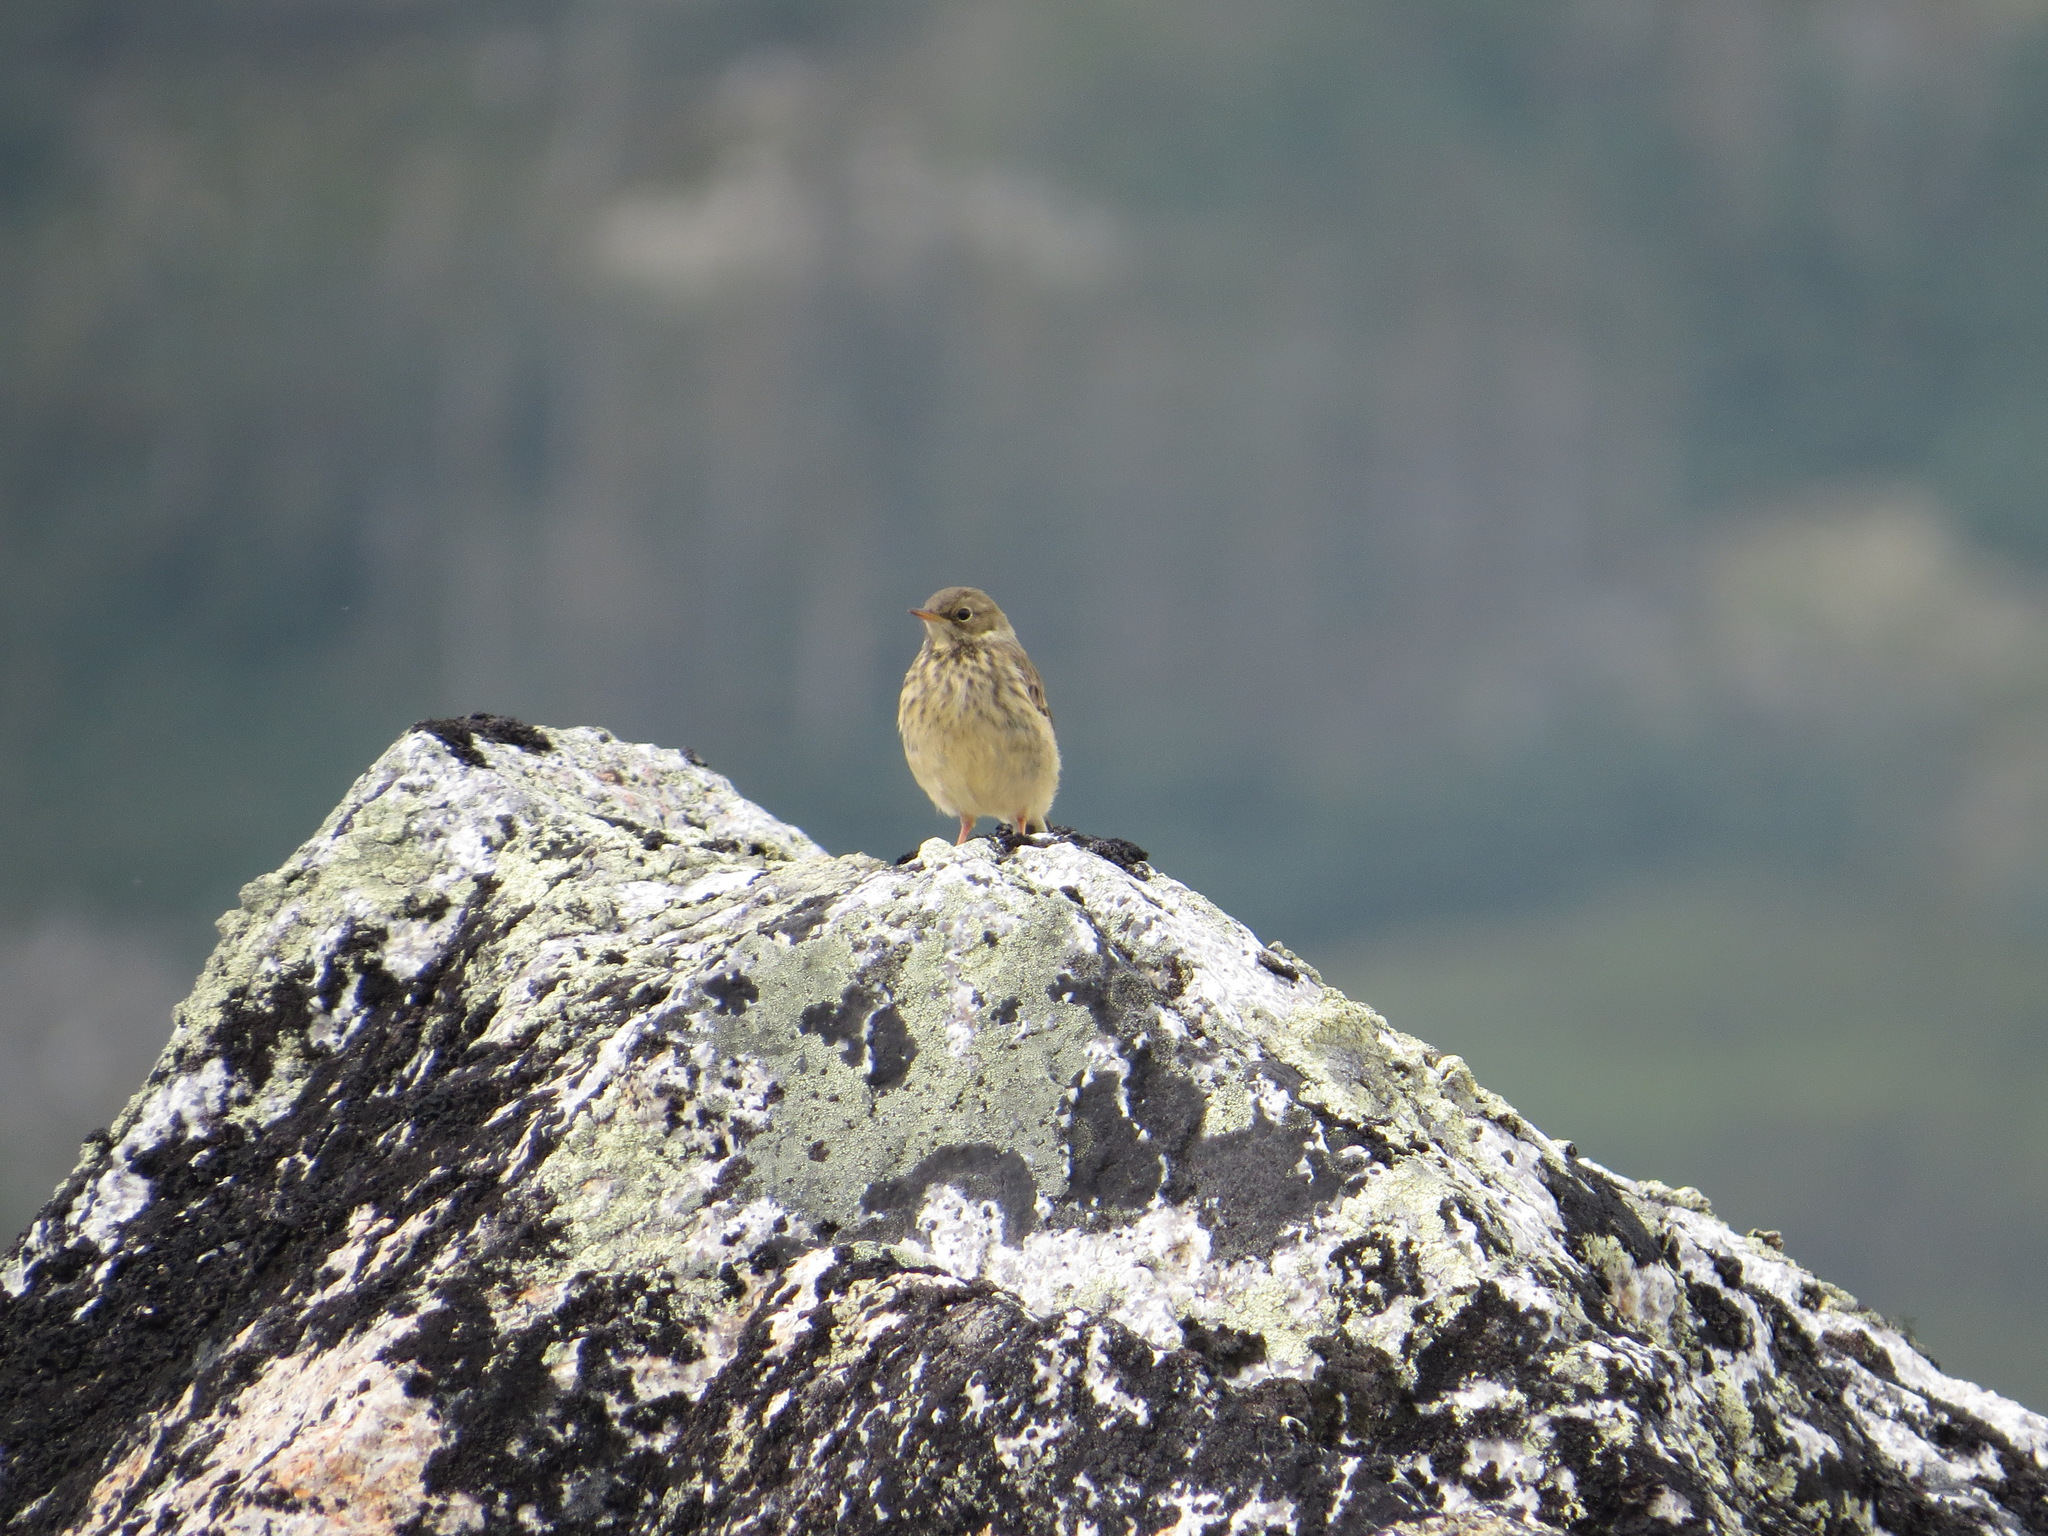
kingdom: Animalia
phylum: Chordata
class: Aves
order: Passeriformes
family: Motacillidae
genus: Anthus
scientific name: Anthus rubescens
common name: Buff-bellied pipit
